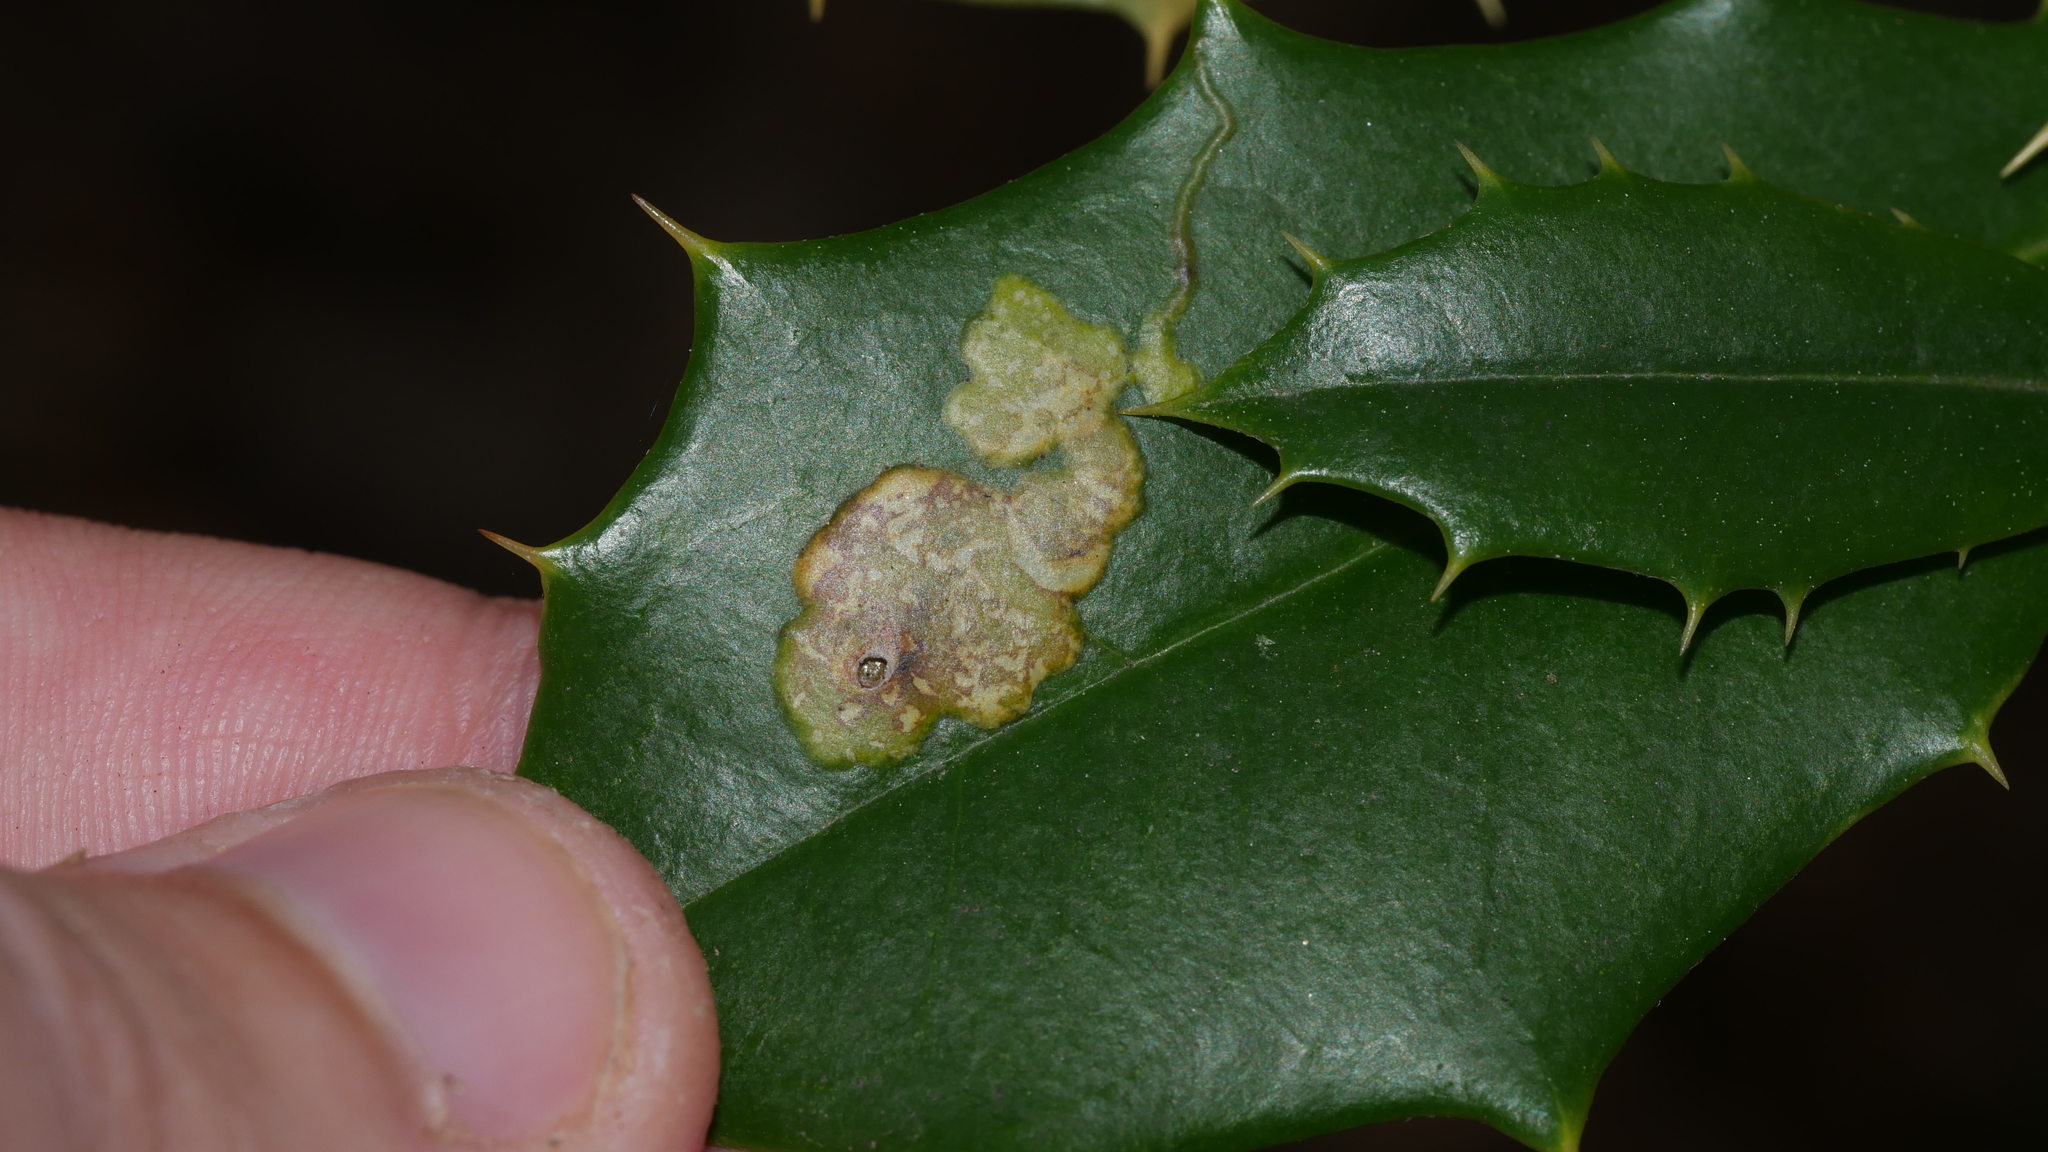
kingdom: Animalia
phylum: Arthropoda
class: Insecta
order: Diptera
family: Agromyzidae
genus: Phytomyza
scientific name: Phytomyza ilicicola
